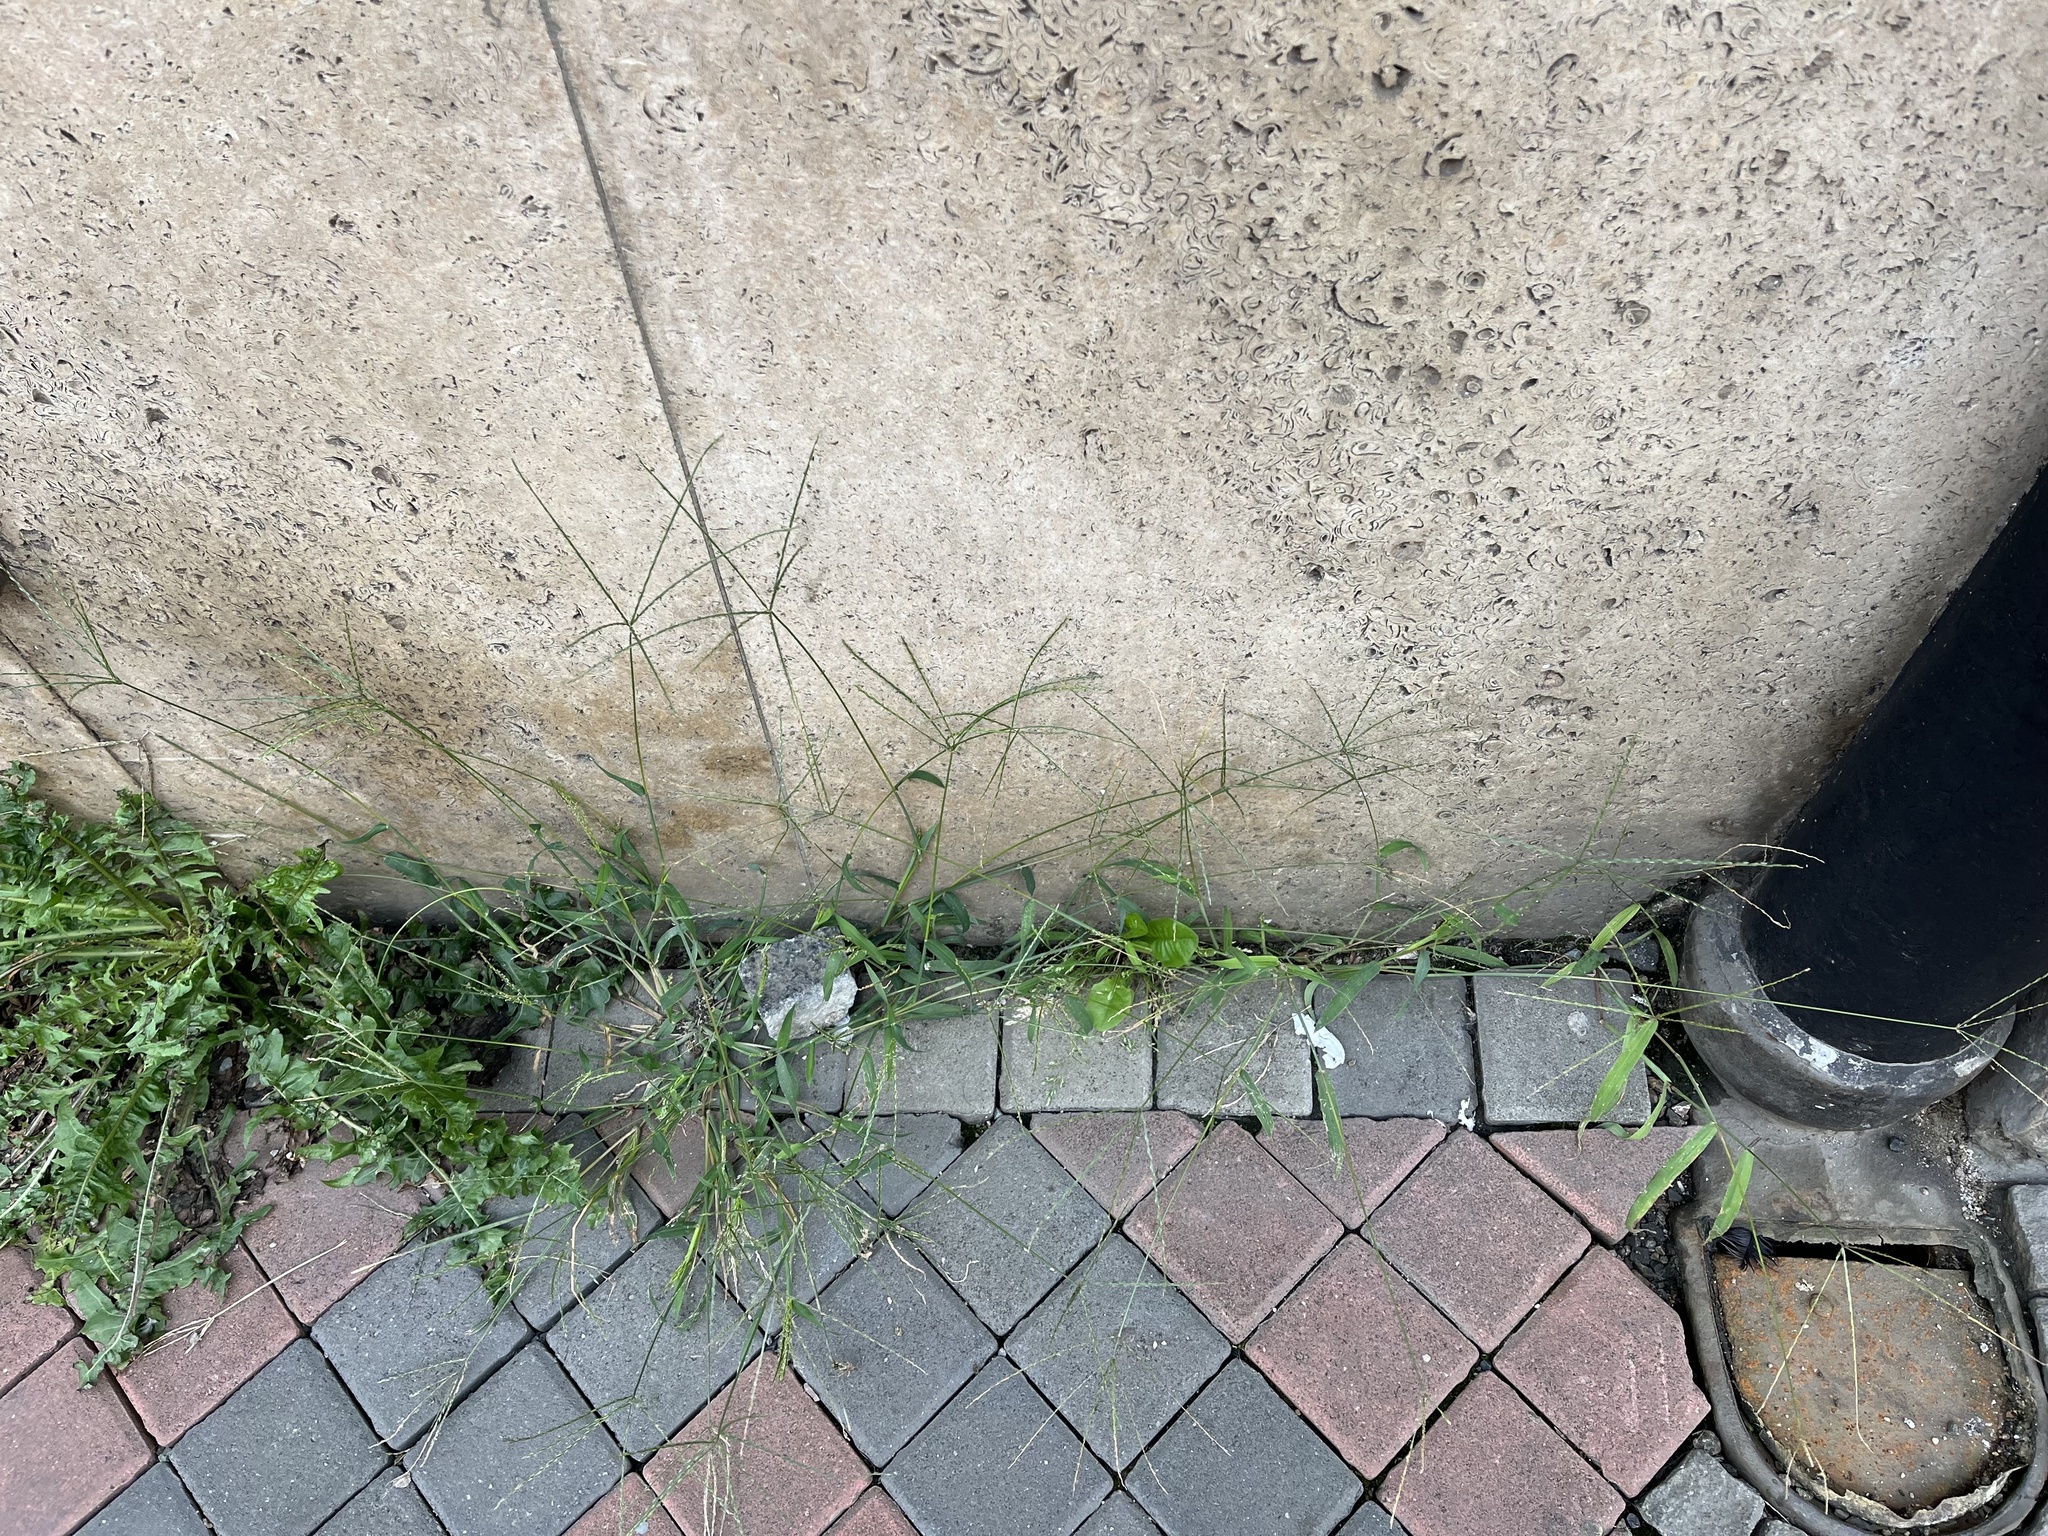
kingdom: Plantae
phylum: Tracheophyta
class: Liliopsida
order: Poales
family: Poaceae
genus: Digitaria
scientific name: Digitaria sanguinalis
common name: Hairy crabgrass
